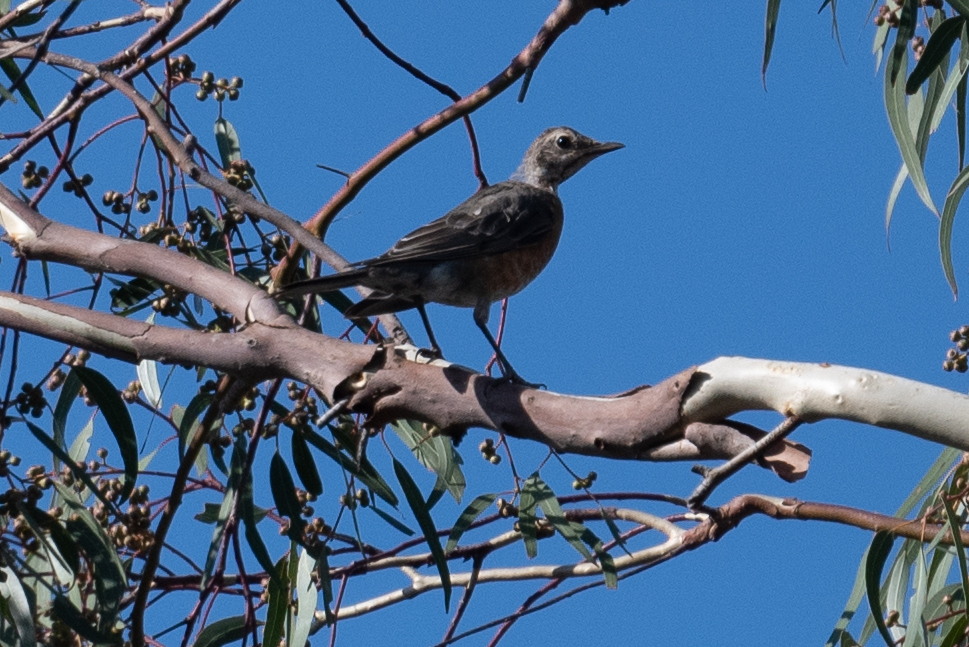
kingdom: Animalia
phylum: Chordata
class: Aves
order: Passeriformes
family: Turdidae
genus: Turdus
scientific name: Turdus migratorius
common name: American robin
